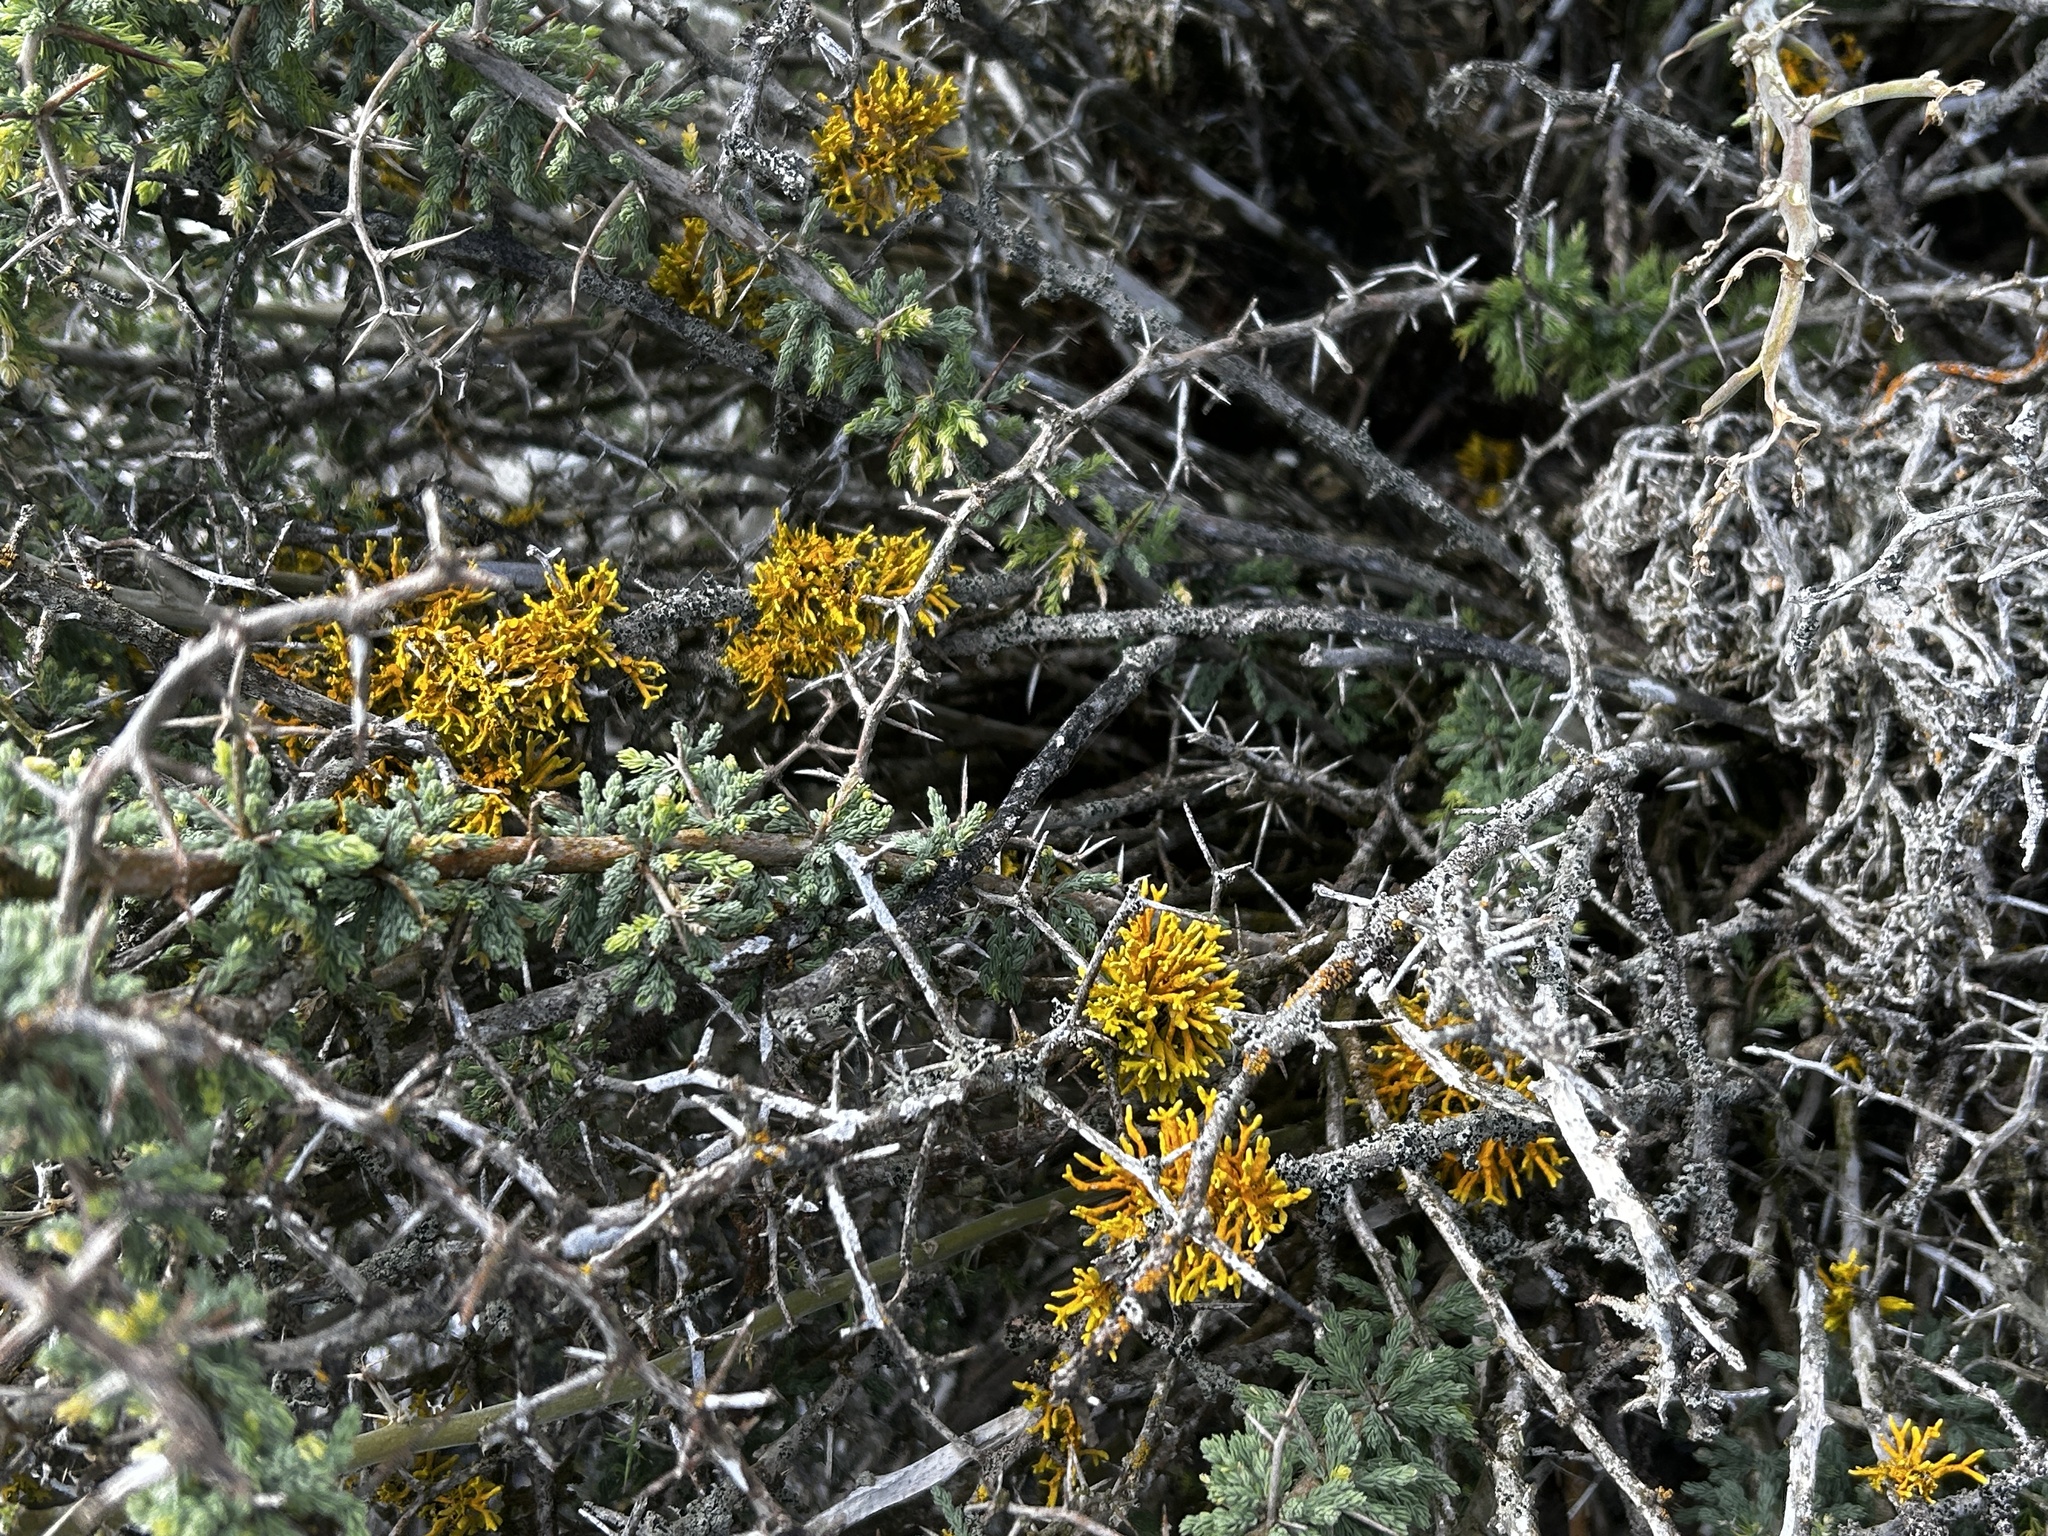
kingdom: Plantae
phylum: Tracheophyta
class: Liliopsida
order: Asparagales
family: Asparagaceae
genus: Asparagus
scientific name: Asparagus capensis
